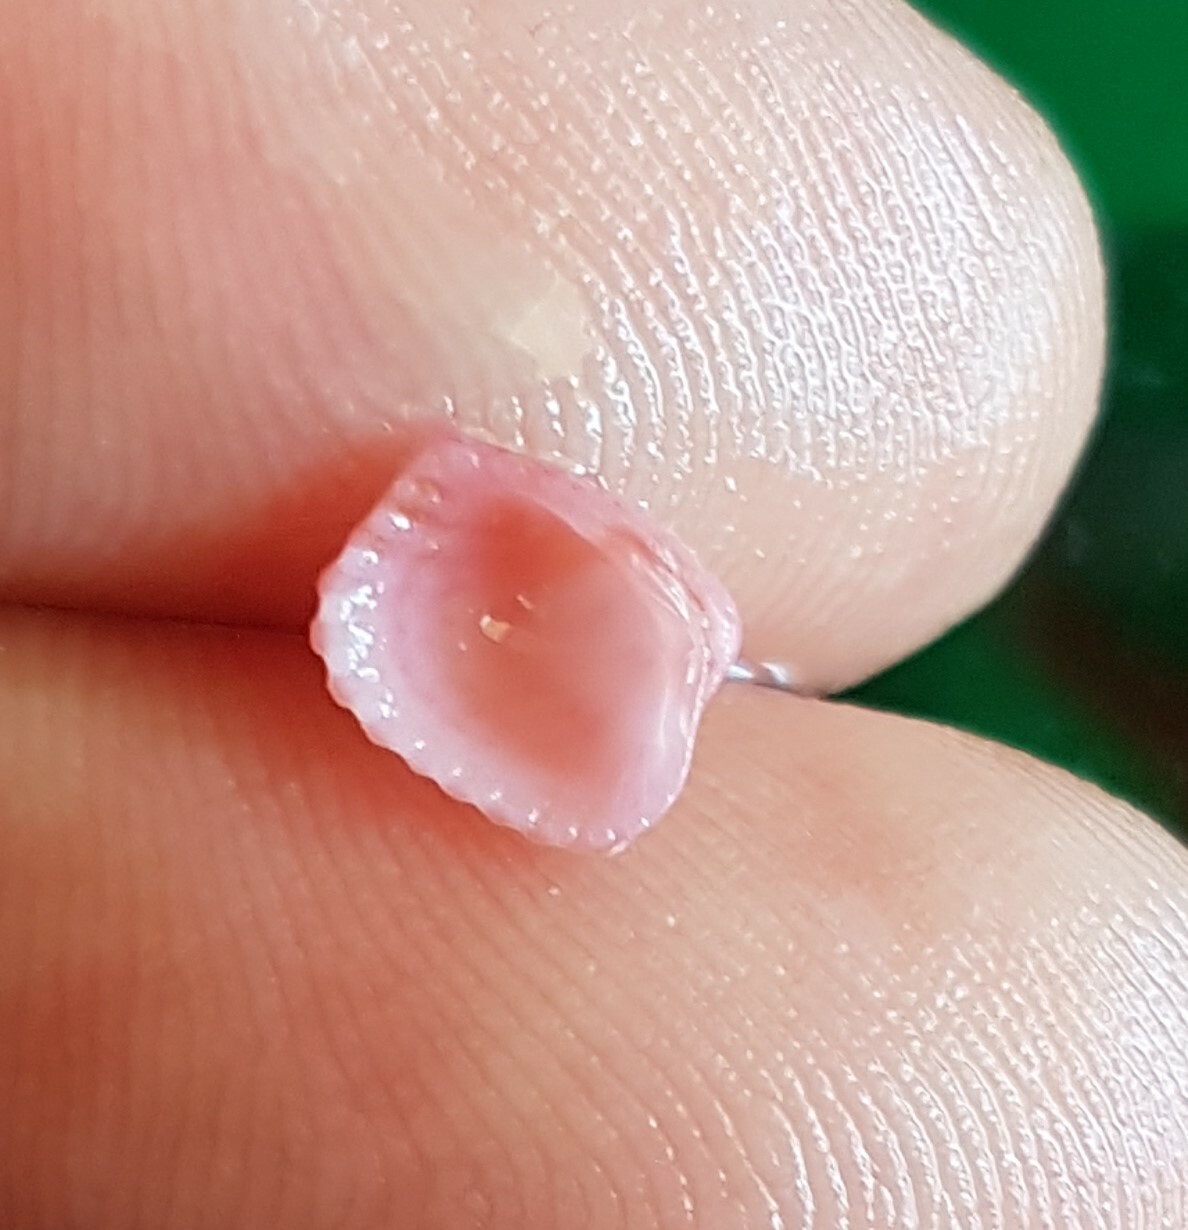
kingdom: Animalia
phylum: Mollusca
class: Bivalvia
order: Carditida
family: Carditidae
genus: Glans
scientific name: Glans trapezia
